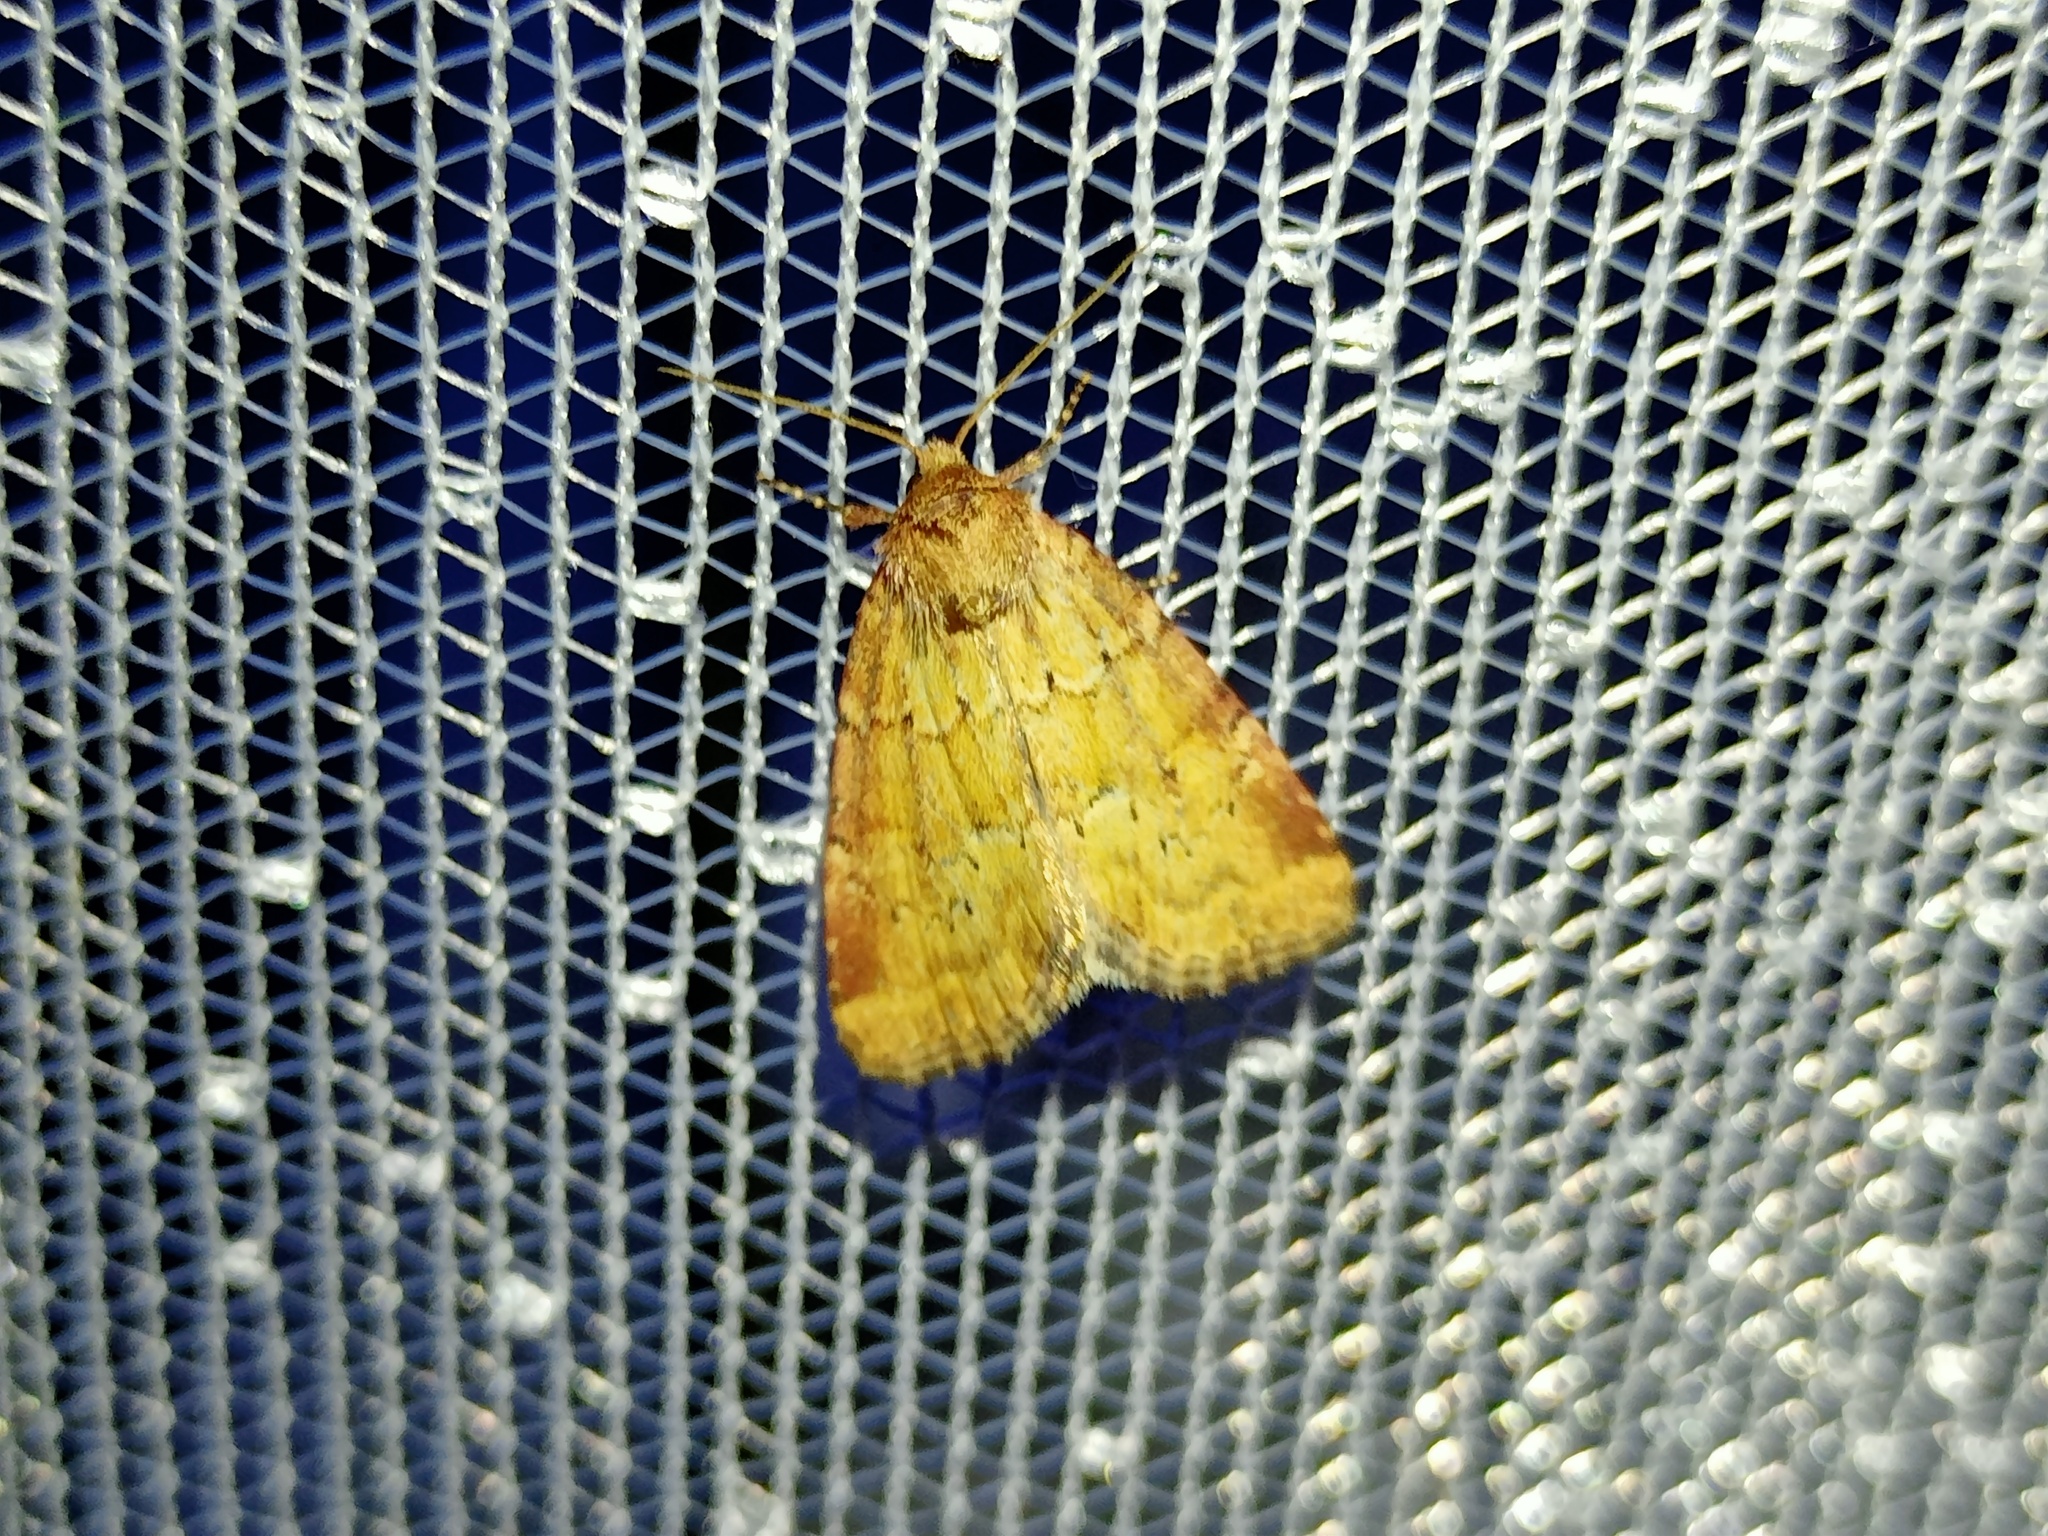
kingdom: Animalia
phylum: Arthropoda
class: Insecta
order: Lepidoptera
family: Noctuidae
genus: Photedes
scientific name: Photedes minima
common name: Small dotted buff
